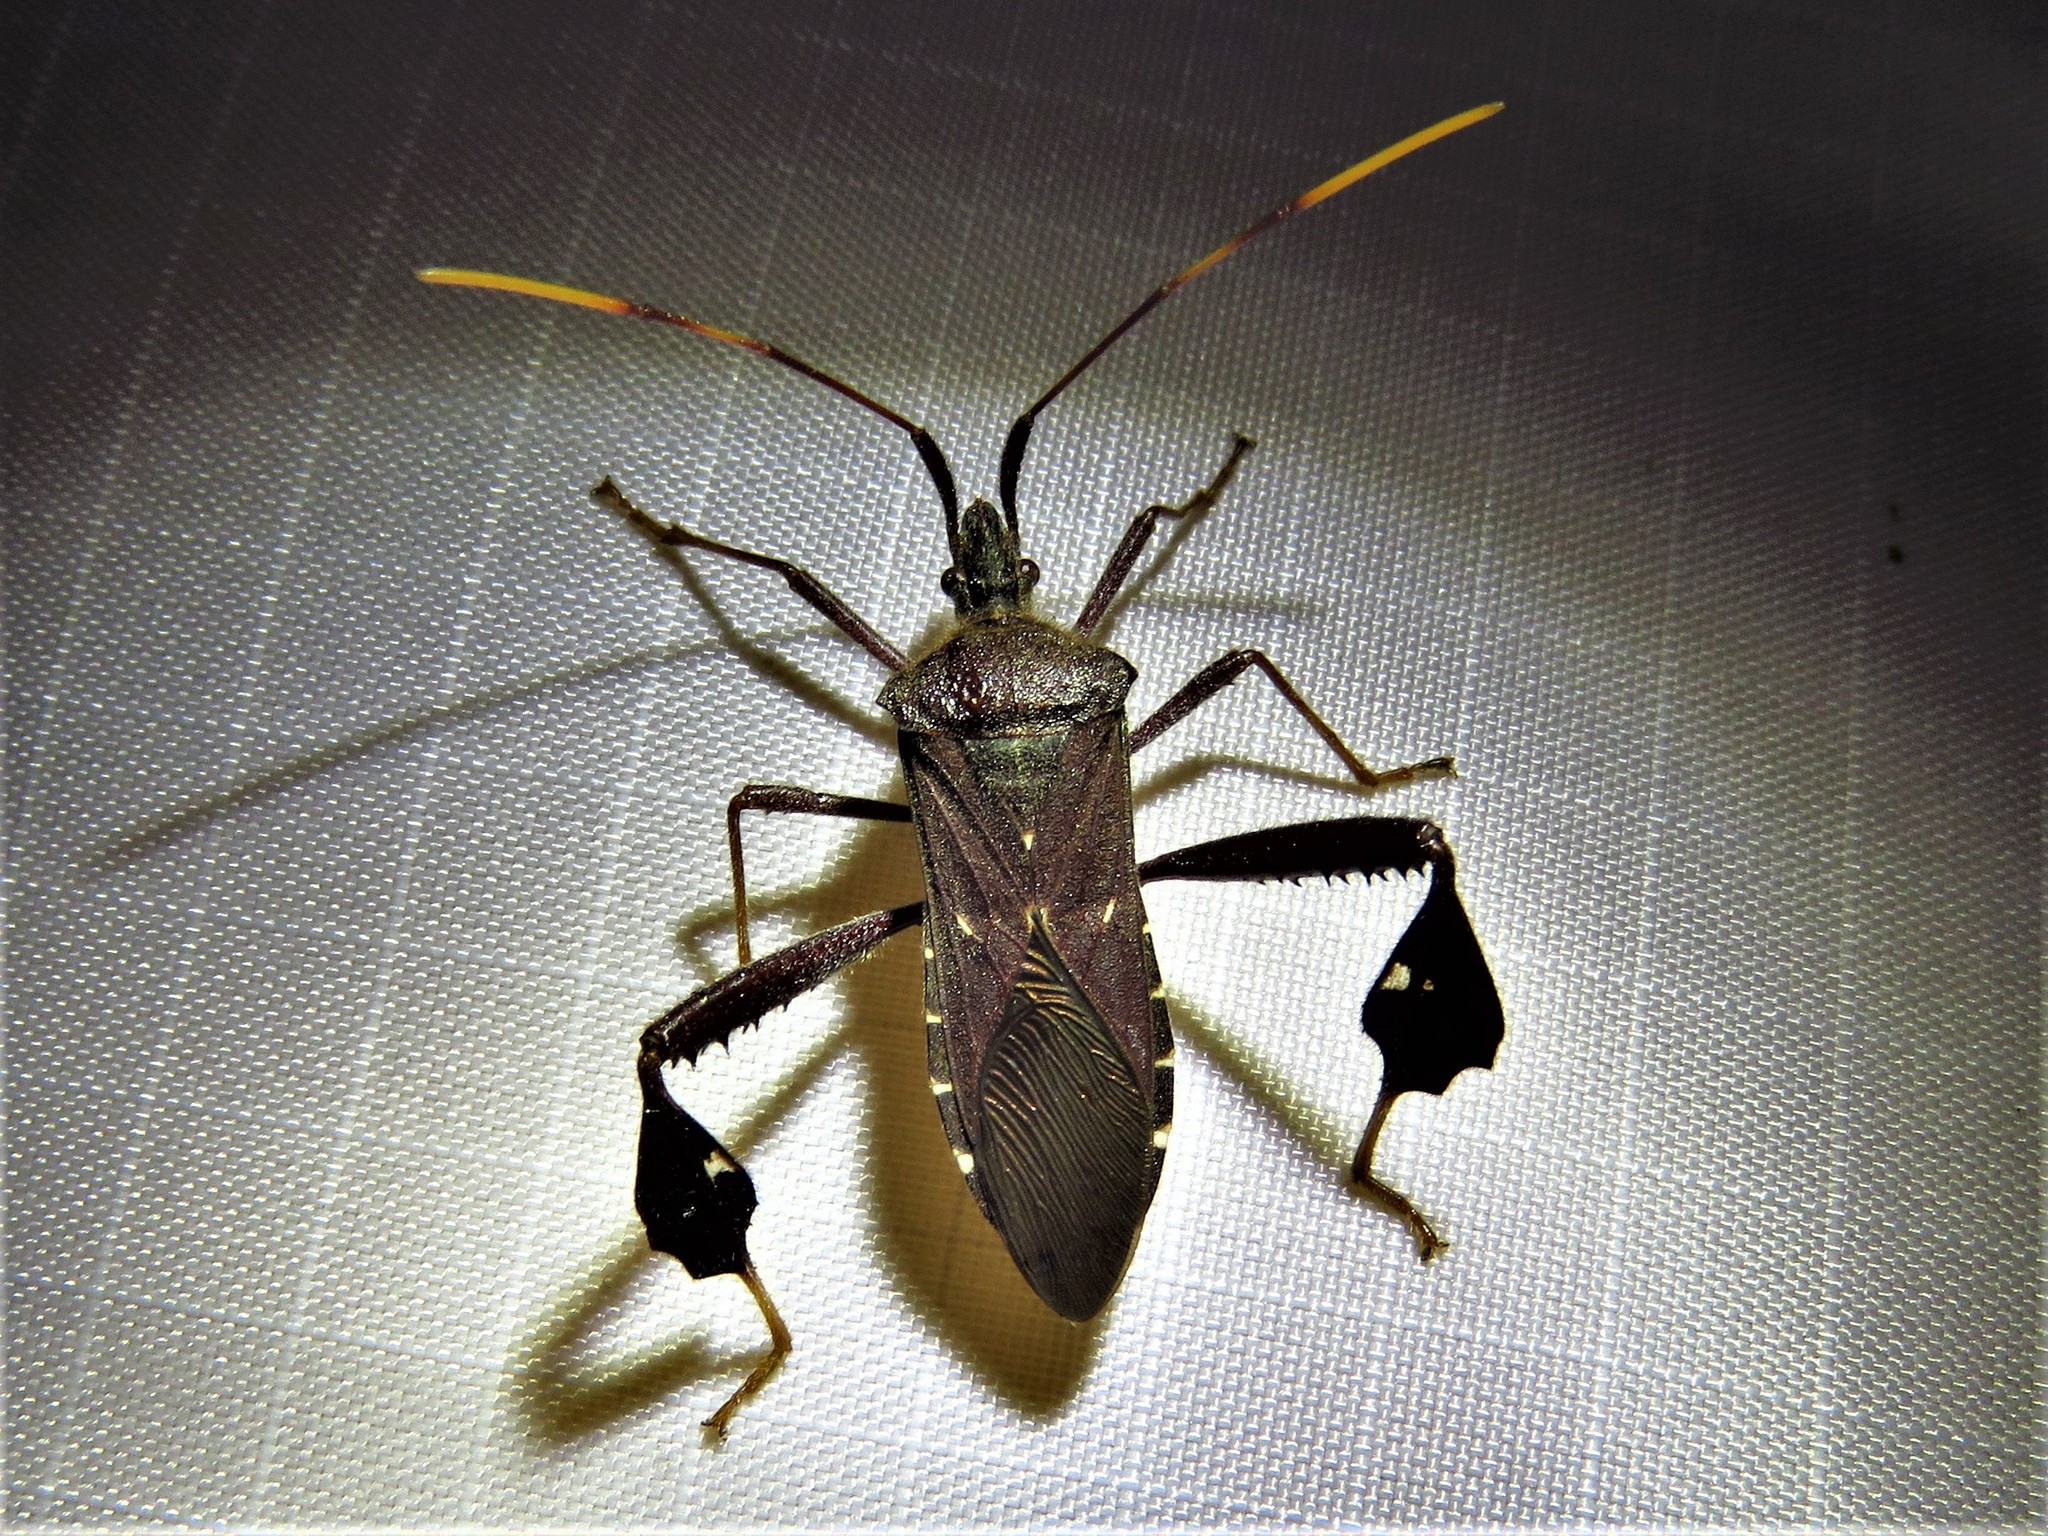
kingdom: Animalia
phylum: Arthropoda
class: Insecta
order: Hemiptera
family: Coreidae
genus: Leptoglossus
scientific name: Leptoglossus oppositus
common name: Northern leaf-footed bug
